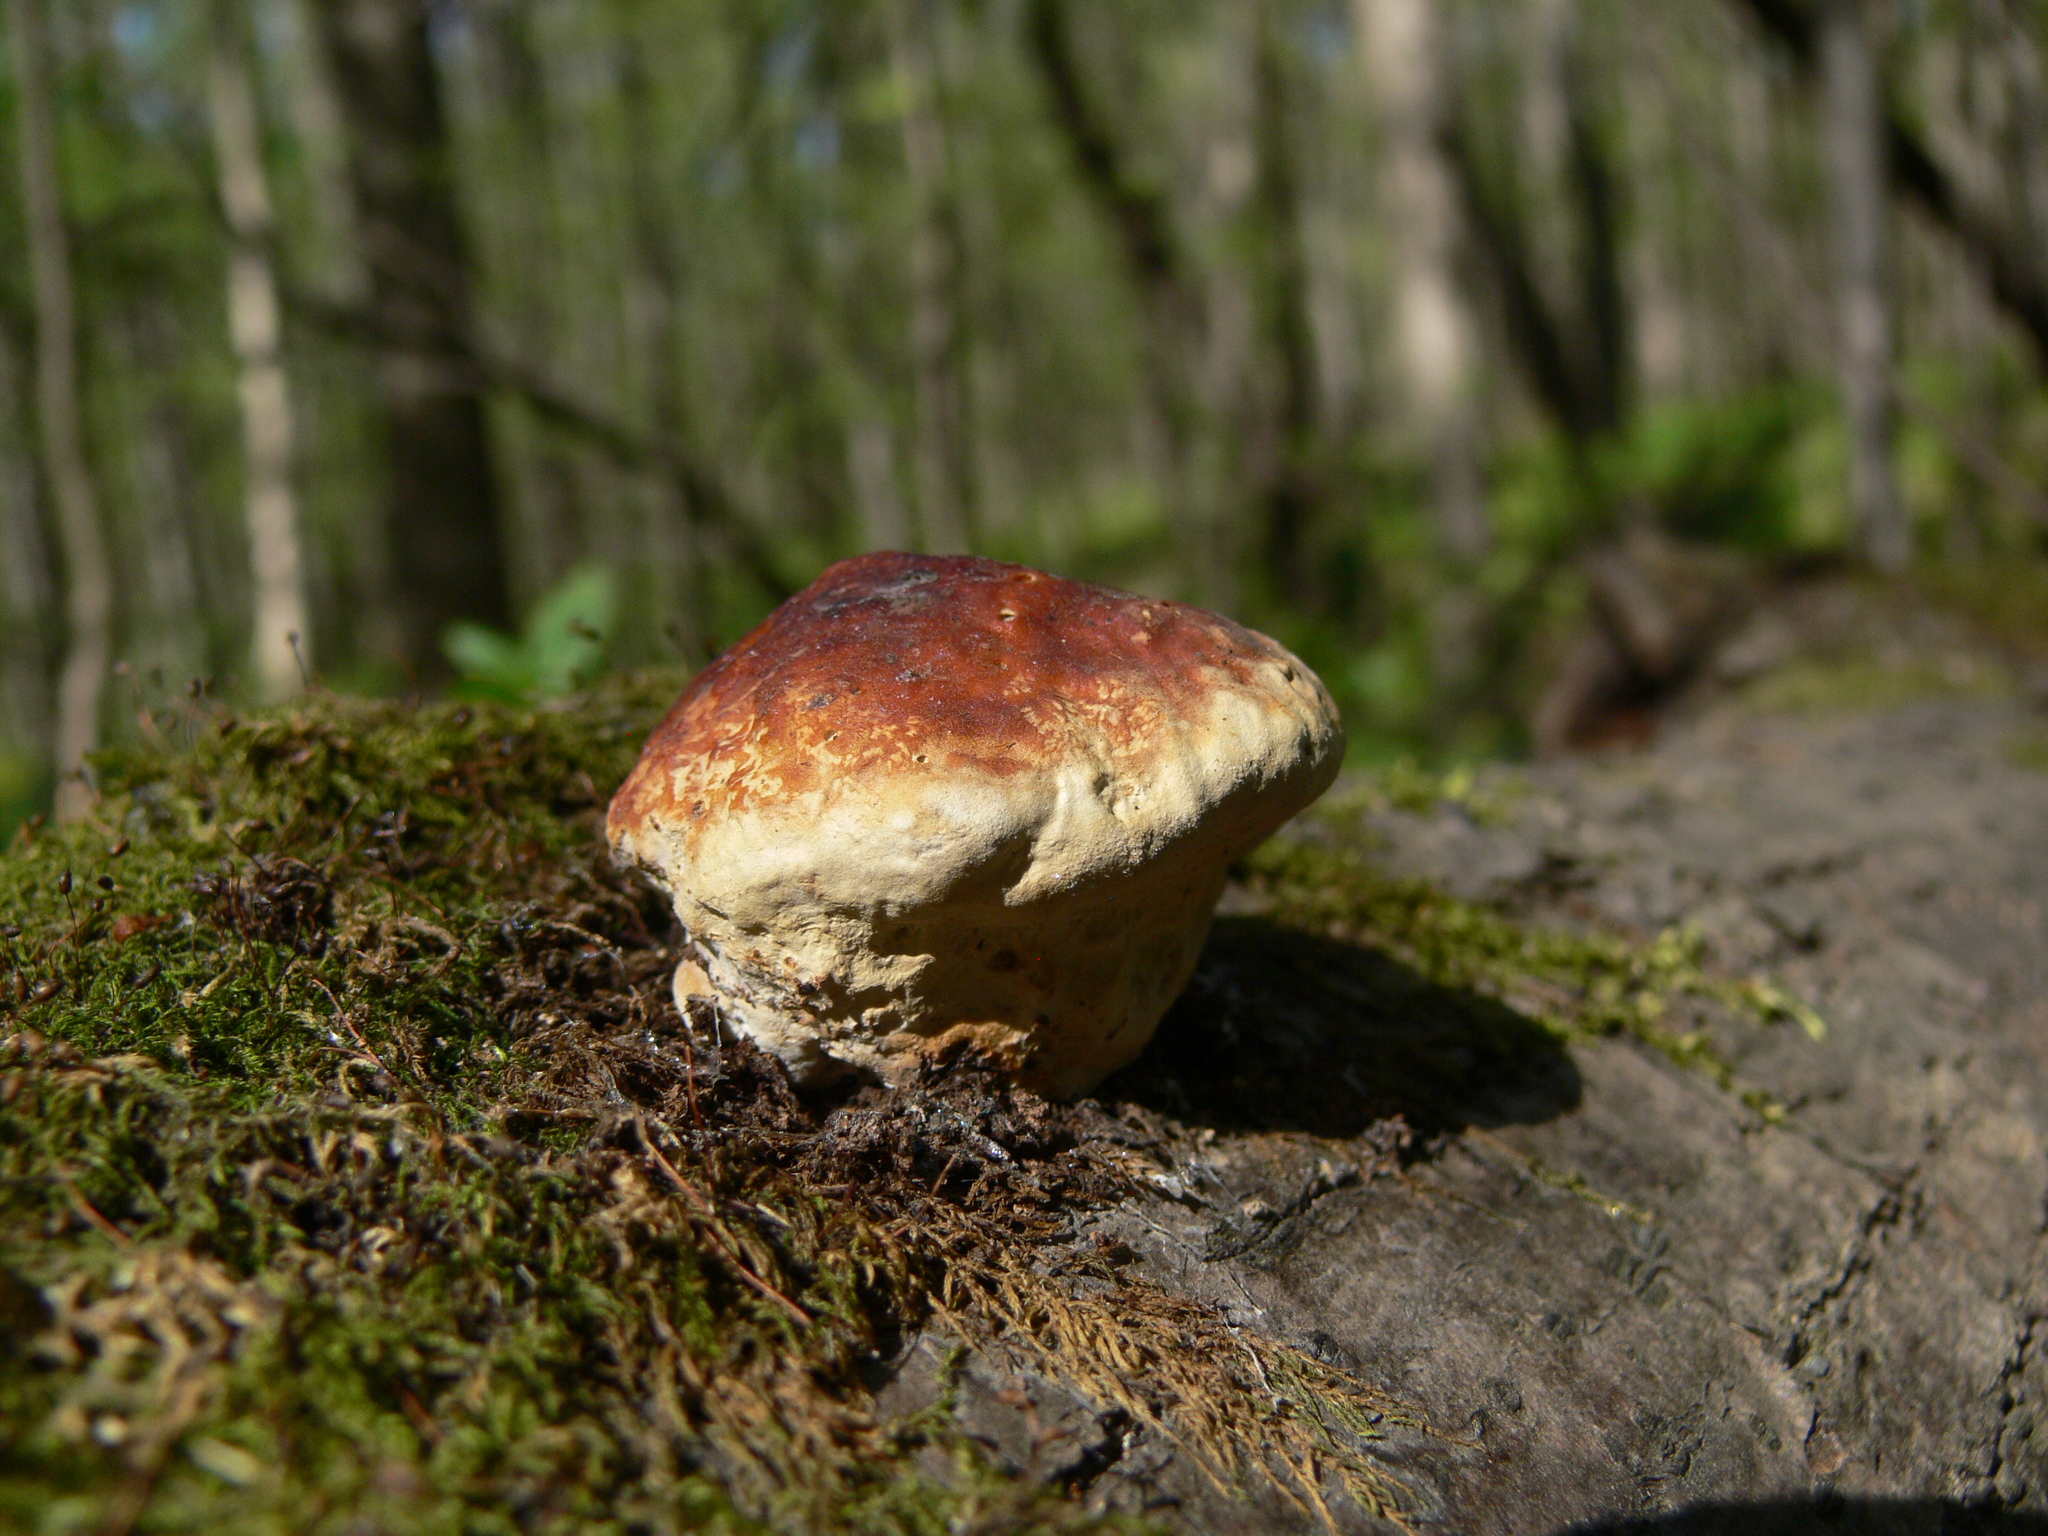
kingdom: Fungi
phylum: Basidiomycota
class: Agaricomycetes
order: Polyporales
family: Fomitopsidaceae
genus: Fomitopsis
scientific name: Fomitopsis pinicola
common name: Red-belted bracket
